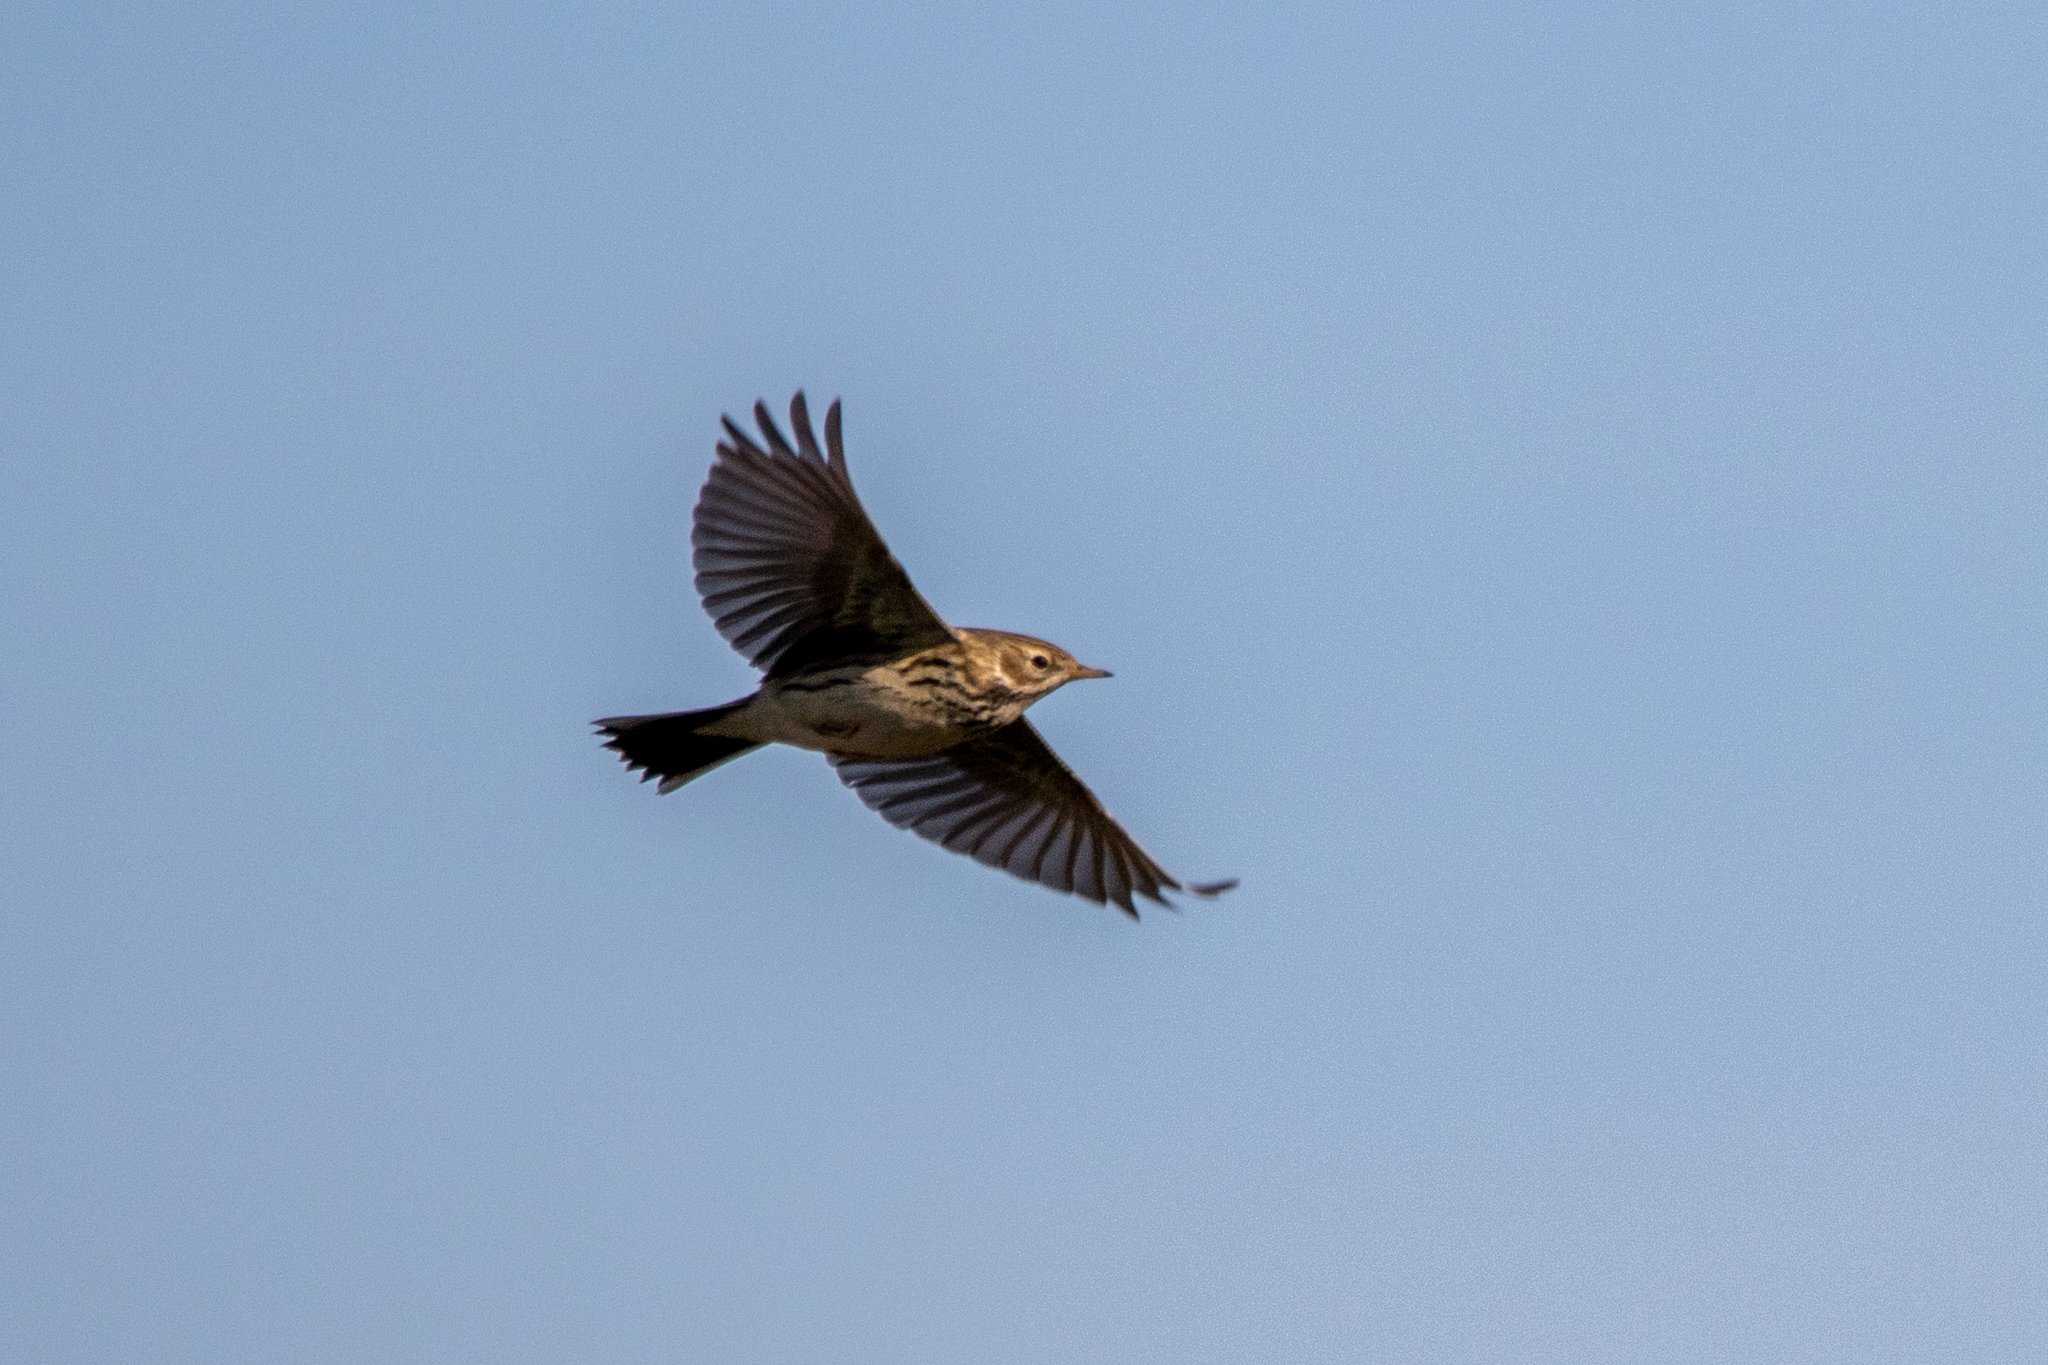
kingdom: Animalia
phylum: Chordata
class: Aves
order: Passeriformes
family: Motacillidae
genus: Anthus
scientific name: Anthus pratensis
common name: Meadow pipit
